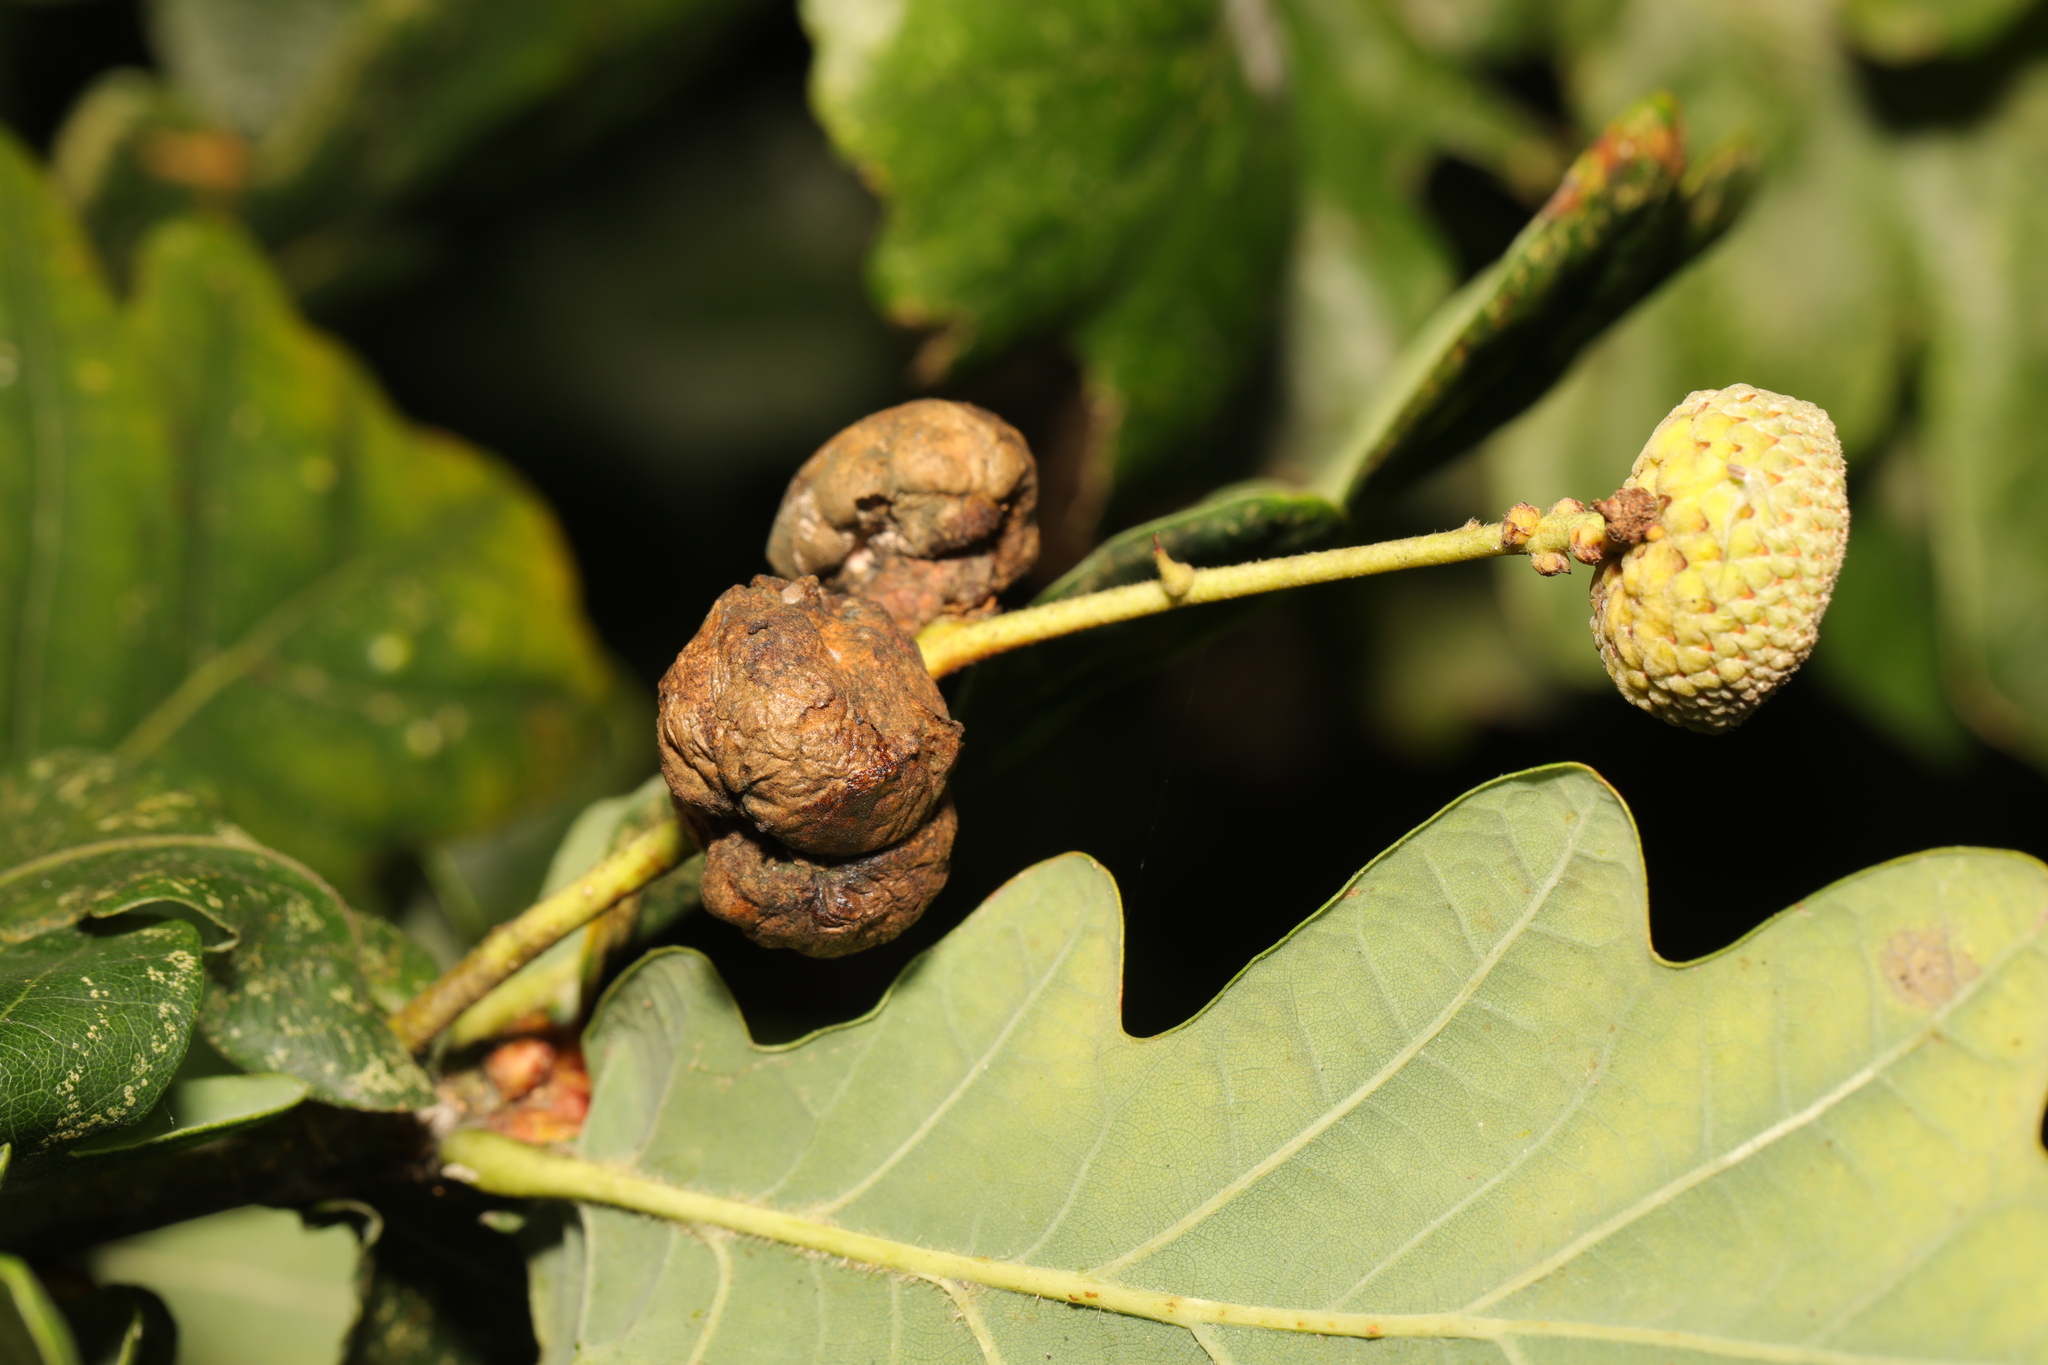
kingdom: Animalia
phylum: Arthropoda
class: Insecta
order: Hymenoptera
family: Cynipidae
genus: Andricus
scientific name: Andricus lignicolus
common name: Cola-nut gall
